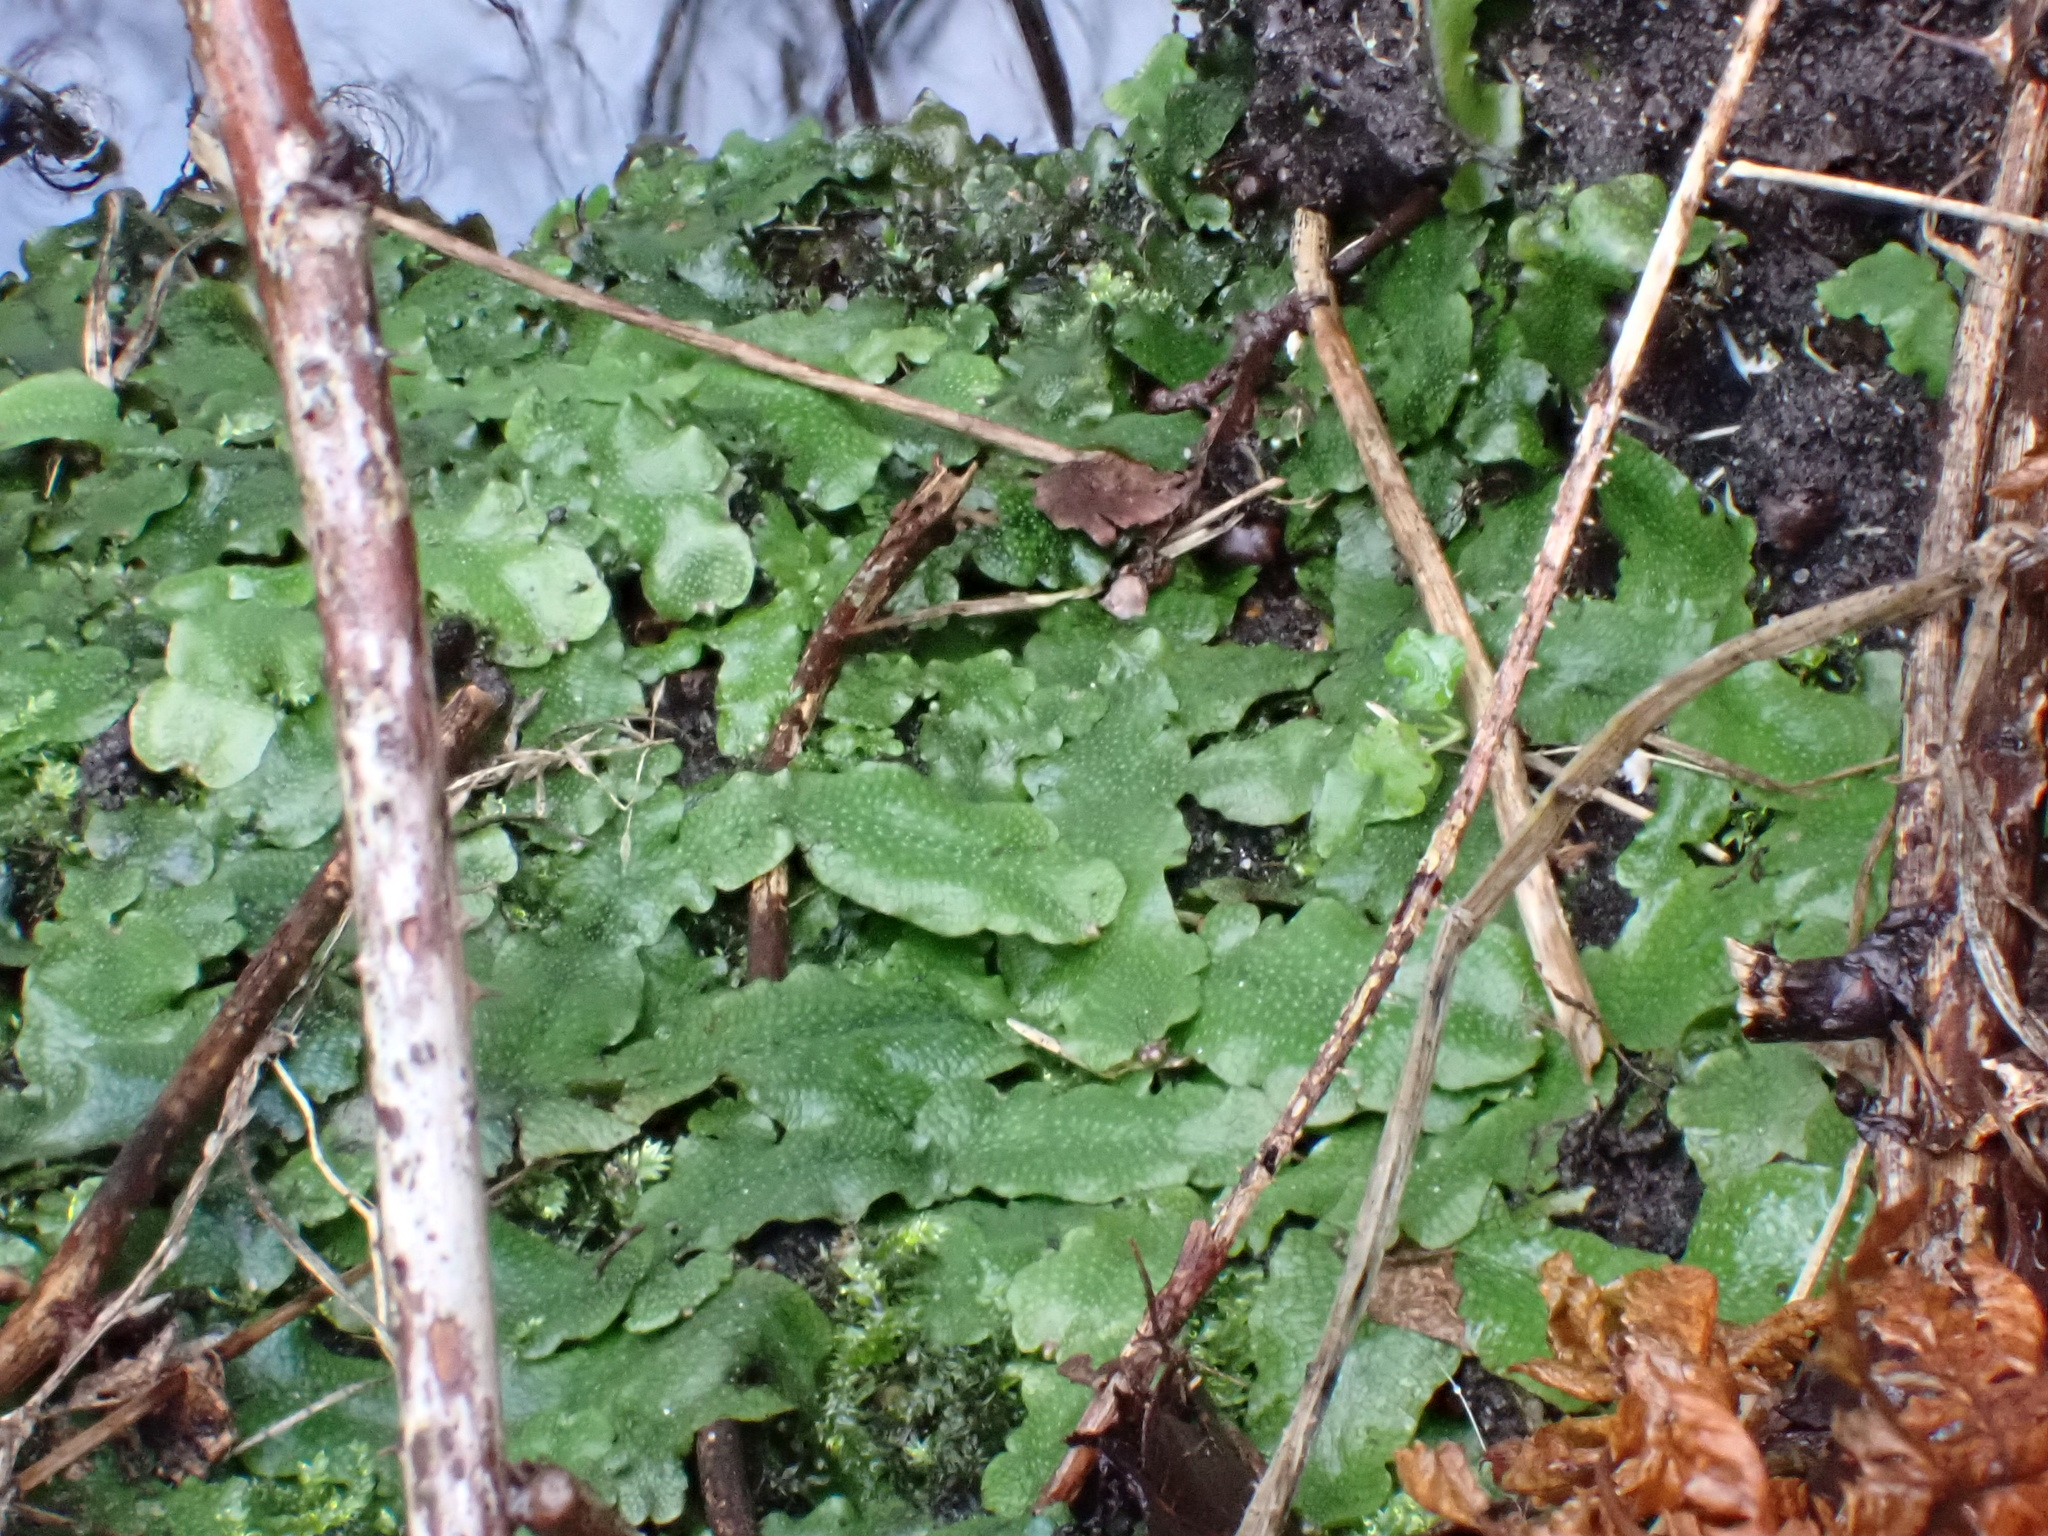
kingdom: Plantae
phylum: Marchantiophyta
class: Marchantiopsida
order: Marchantiales
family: Conocephalaceae
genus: Conocephalum
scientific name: Conocephalum conicum
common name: Great scented liverwort
